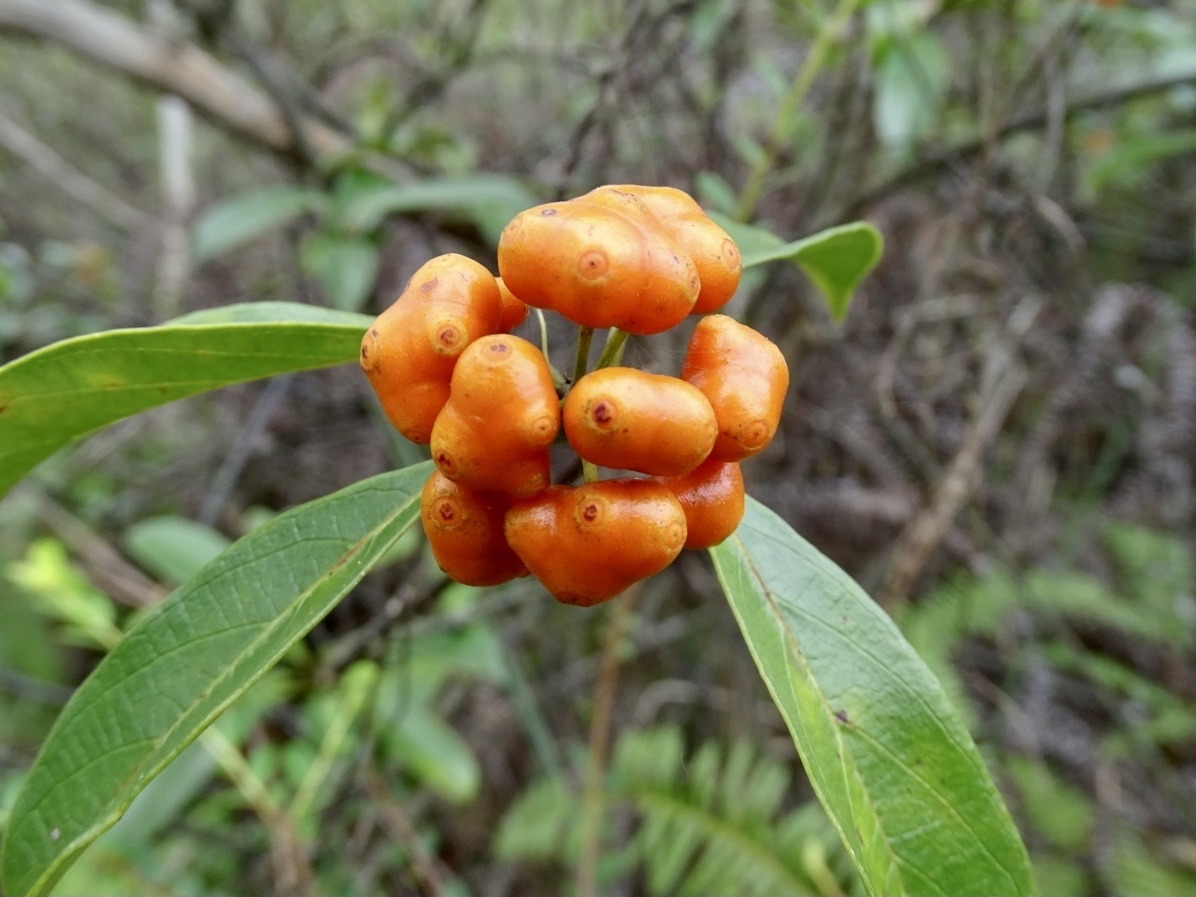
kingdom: Plantae
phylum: Tracheophyta
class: Magnoliopsida
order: Gentianales
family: Rubiaceae
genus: Gynochthodes
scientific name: Gynochthodes umbellata
